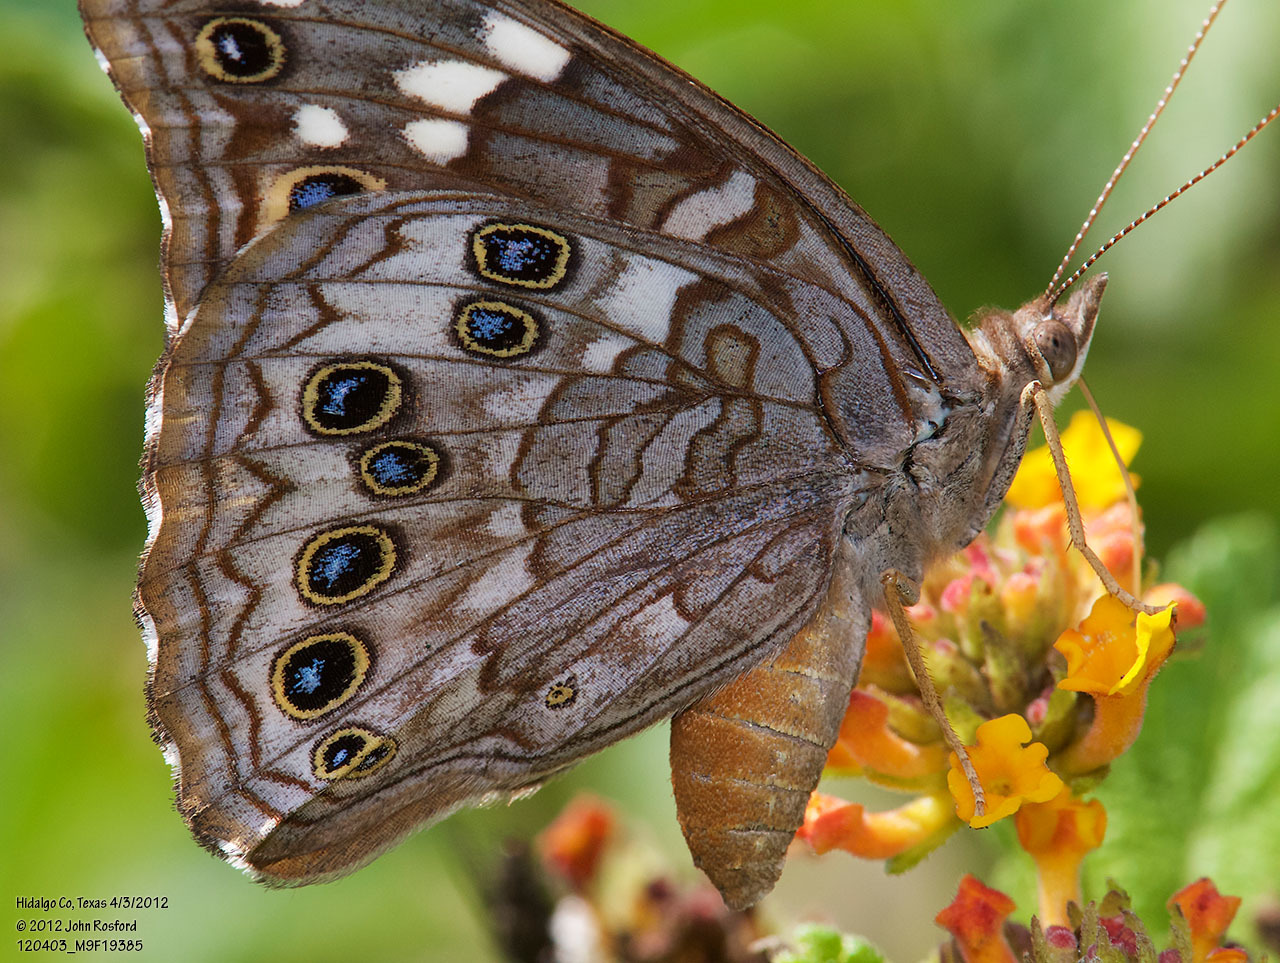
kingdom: Animalia
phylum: Arthropoda
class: Insecta
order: Lepidoptera
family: Nymphalidae
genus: Asterocampa
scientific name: Asterocampa leilia
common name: Empress leilia
